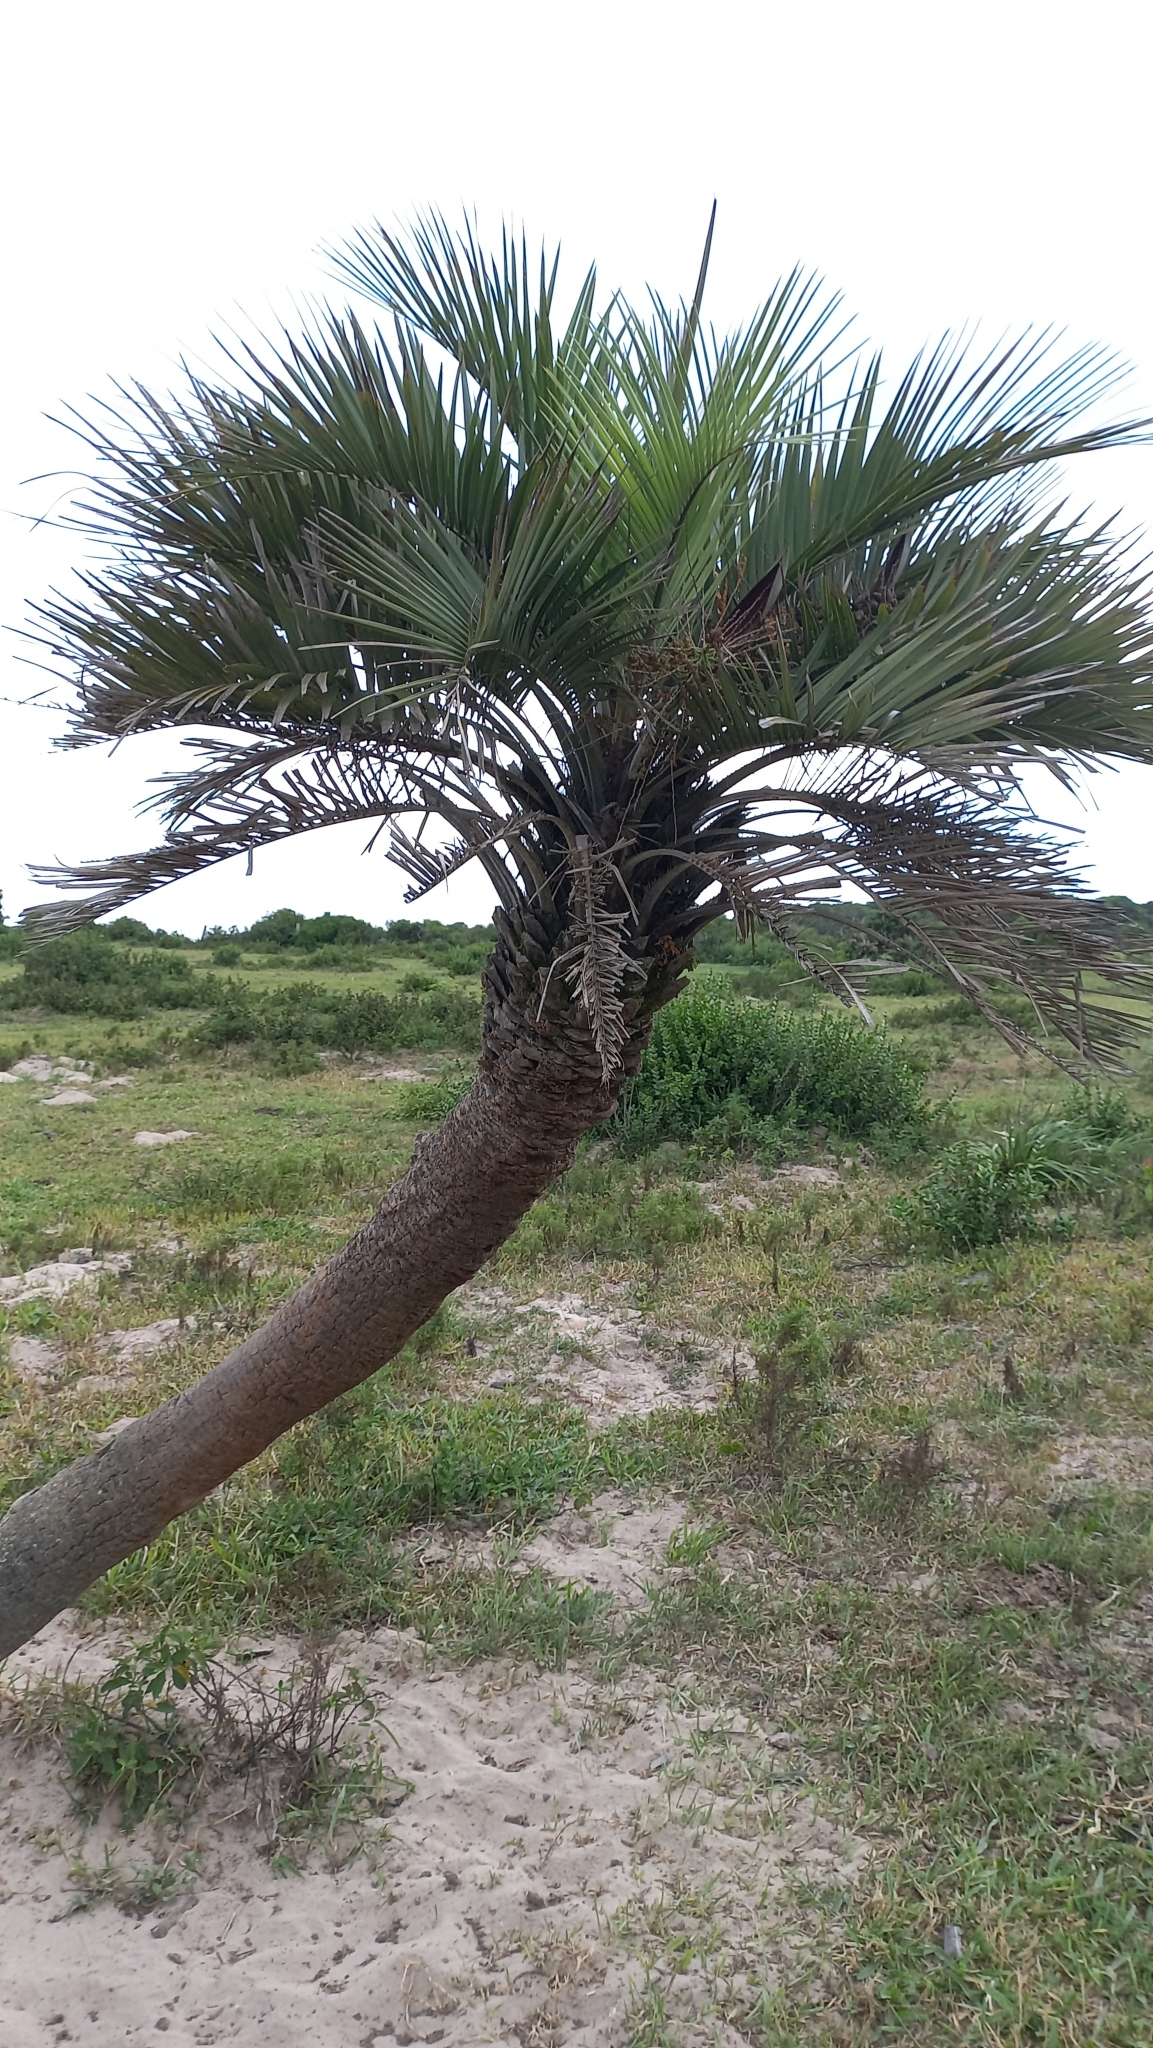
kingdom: Plantae
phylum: Tracheophyta
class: Liliopsida
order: Arecales
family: Arecaceae
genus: Butia
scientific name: Butia catarinensis
